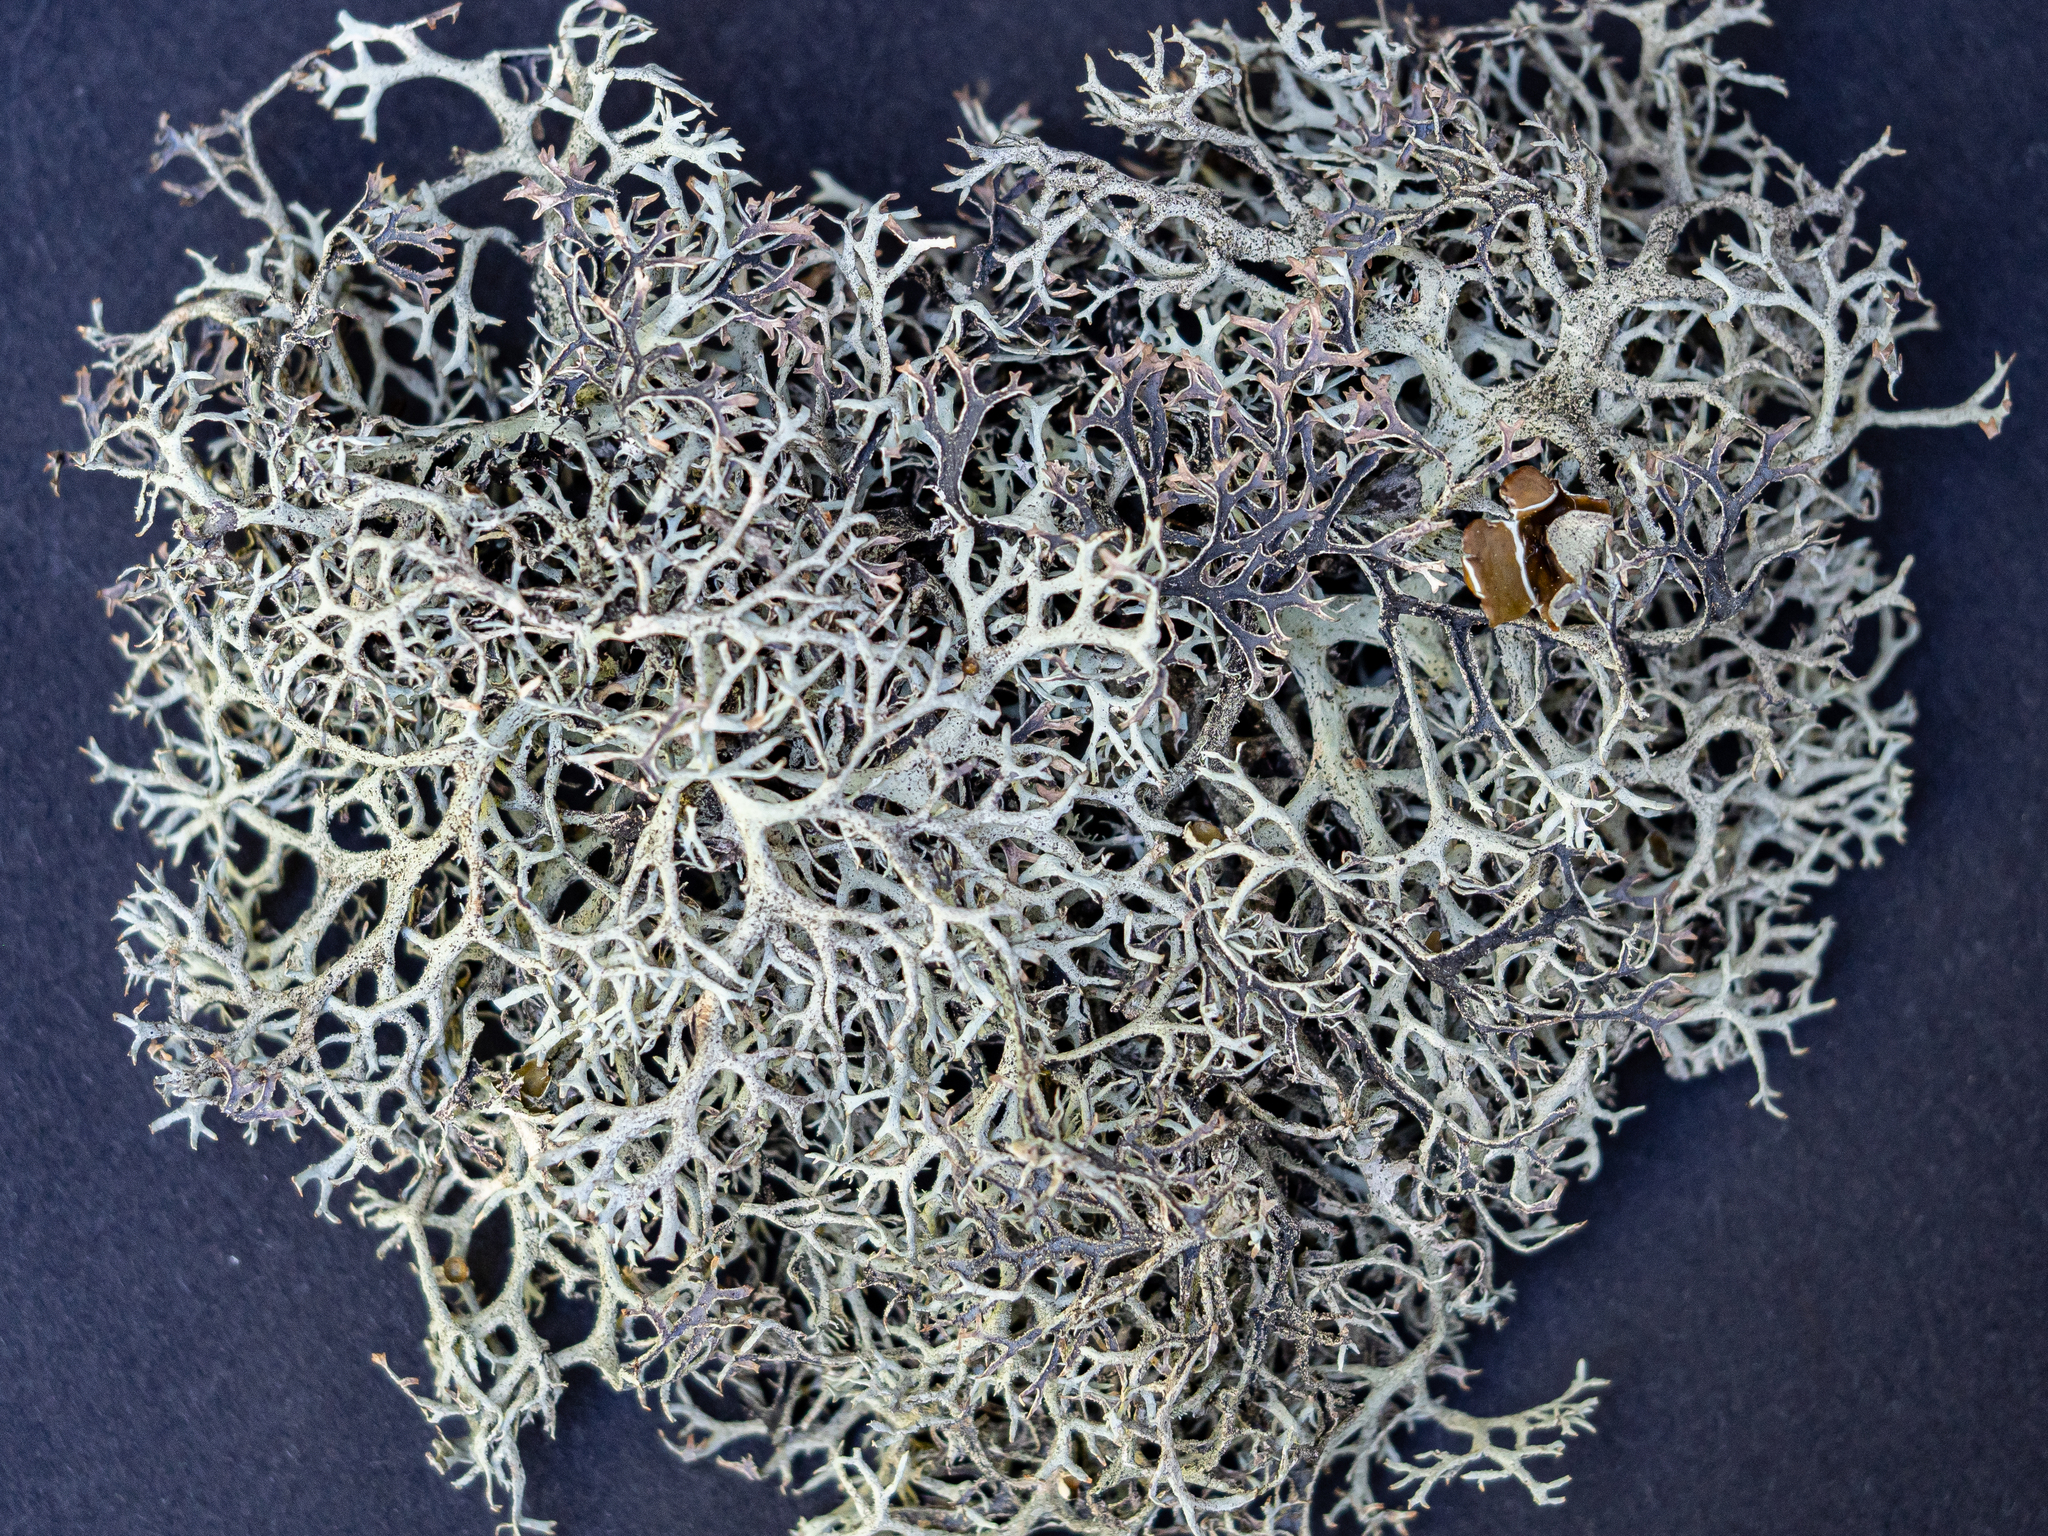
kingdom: Fungi
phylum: Ascomycota
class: Lecanoromycetes
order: Lecanorales
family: Parmeliaceae
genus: Pseudevernia
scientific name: Pseudevernia furfuracea
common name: Tree moss
